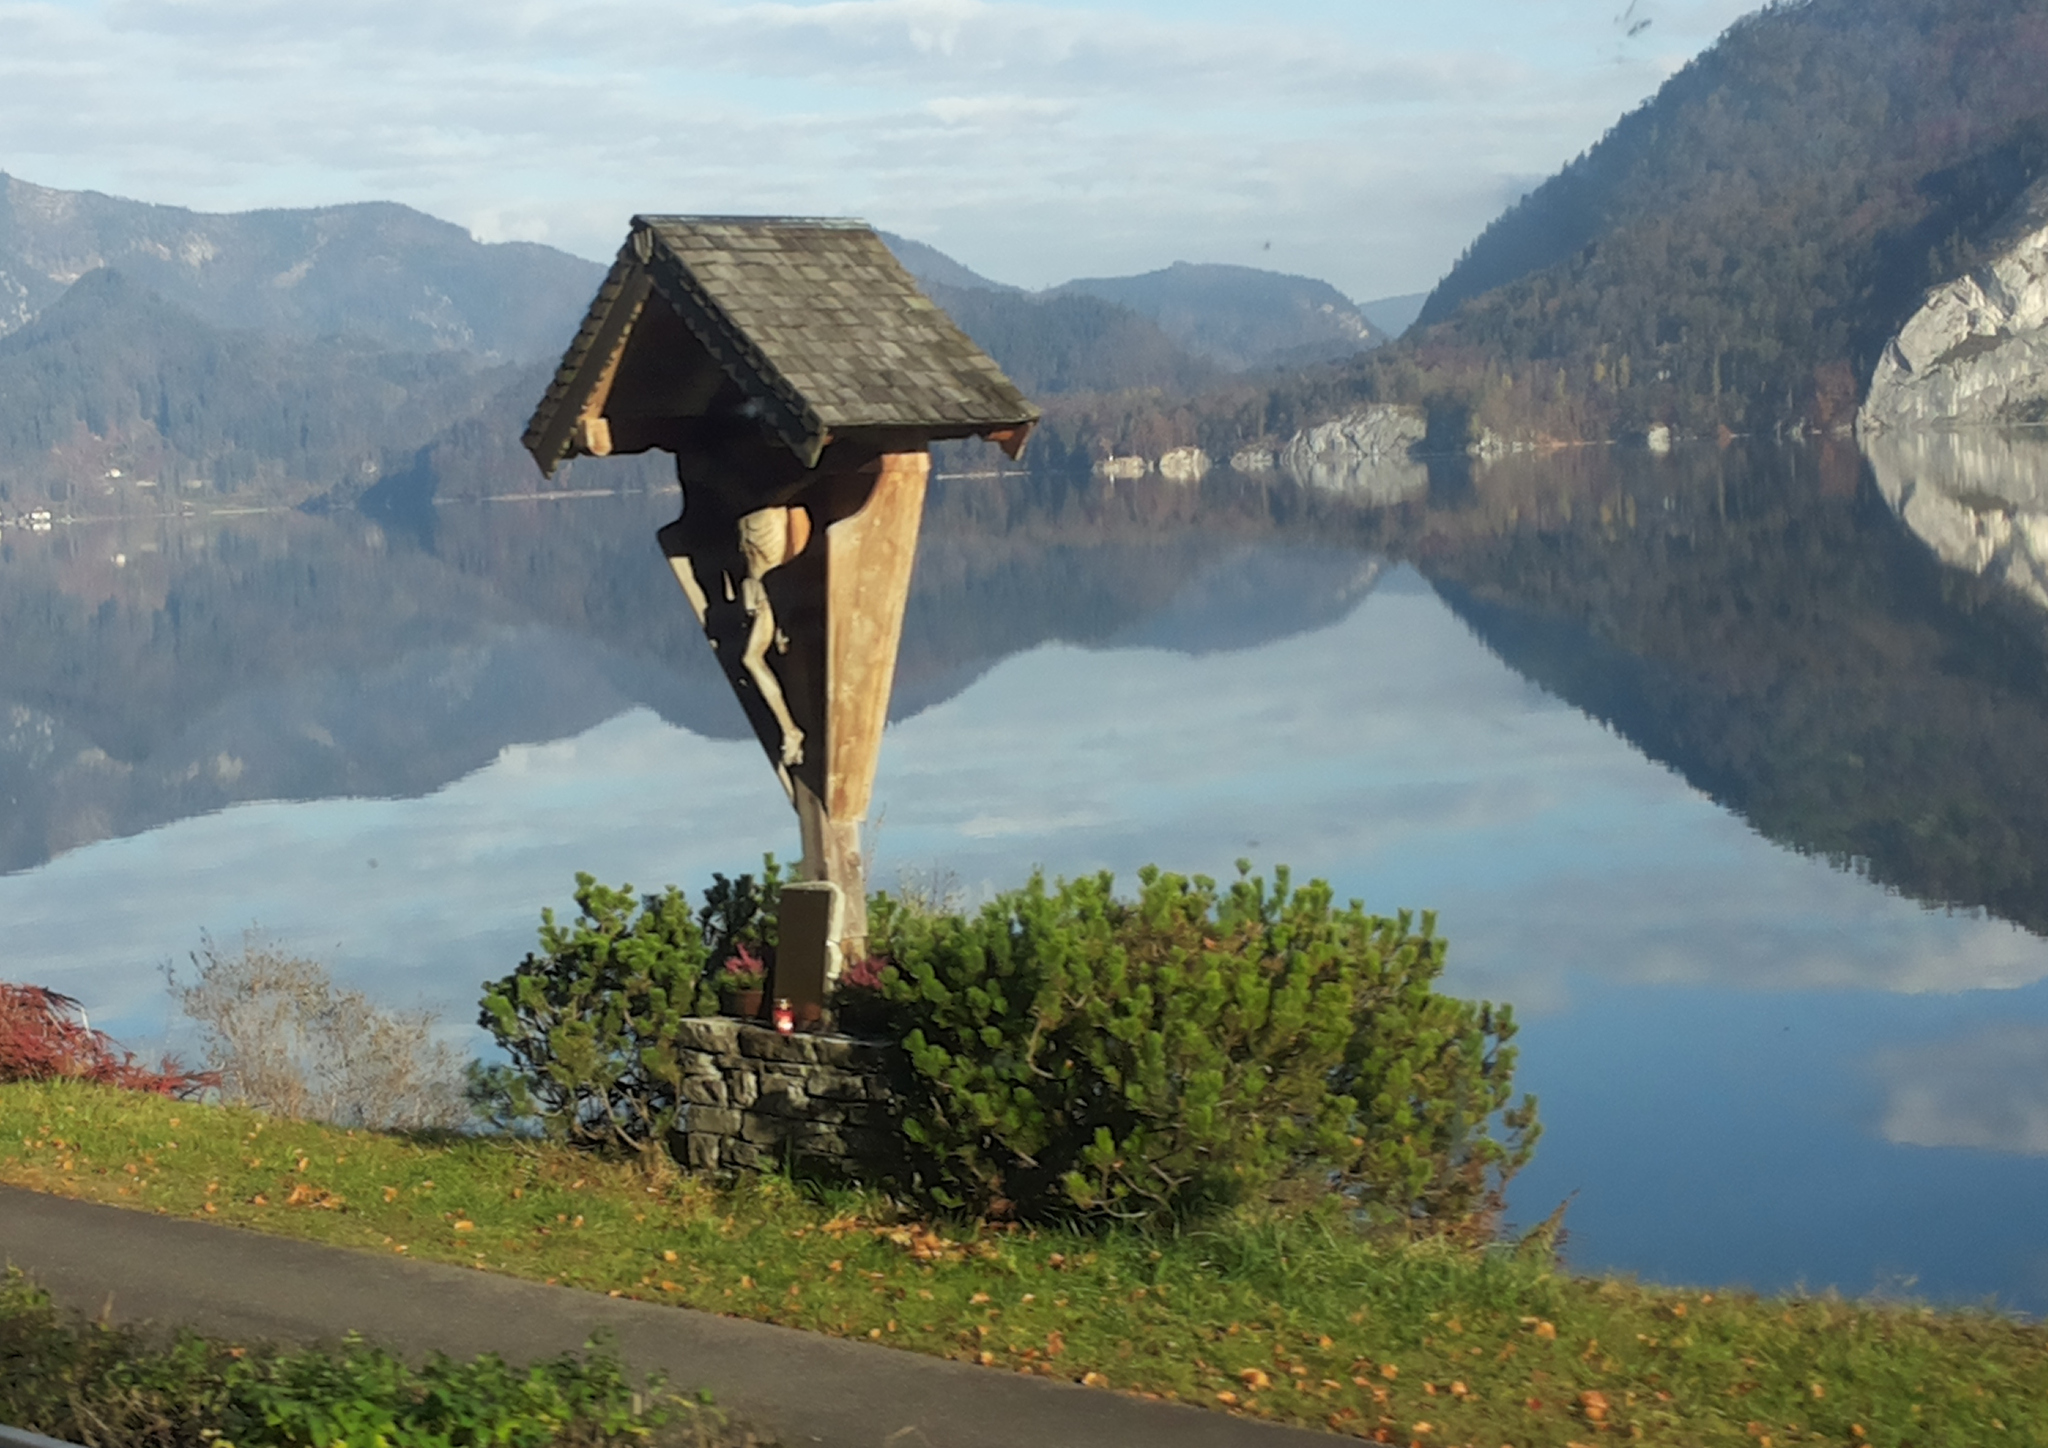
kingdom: Plantae
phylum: Tracheophyta
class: Pinopsida
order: Pinales
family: Pinaceae
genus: Pinus
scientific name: Pinus mugo
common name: Mugo pine
